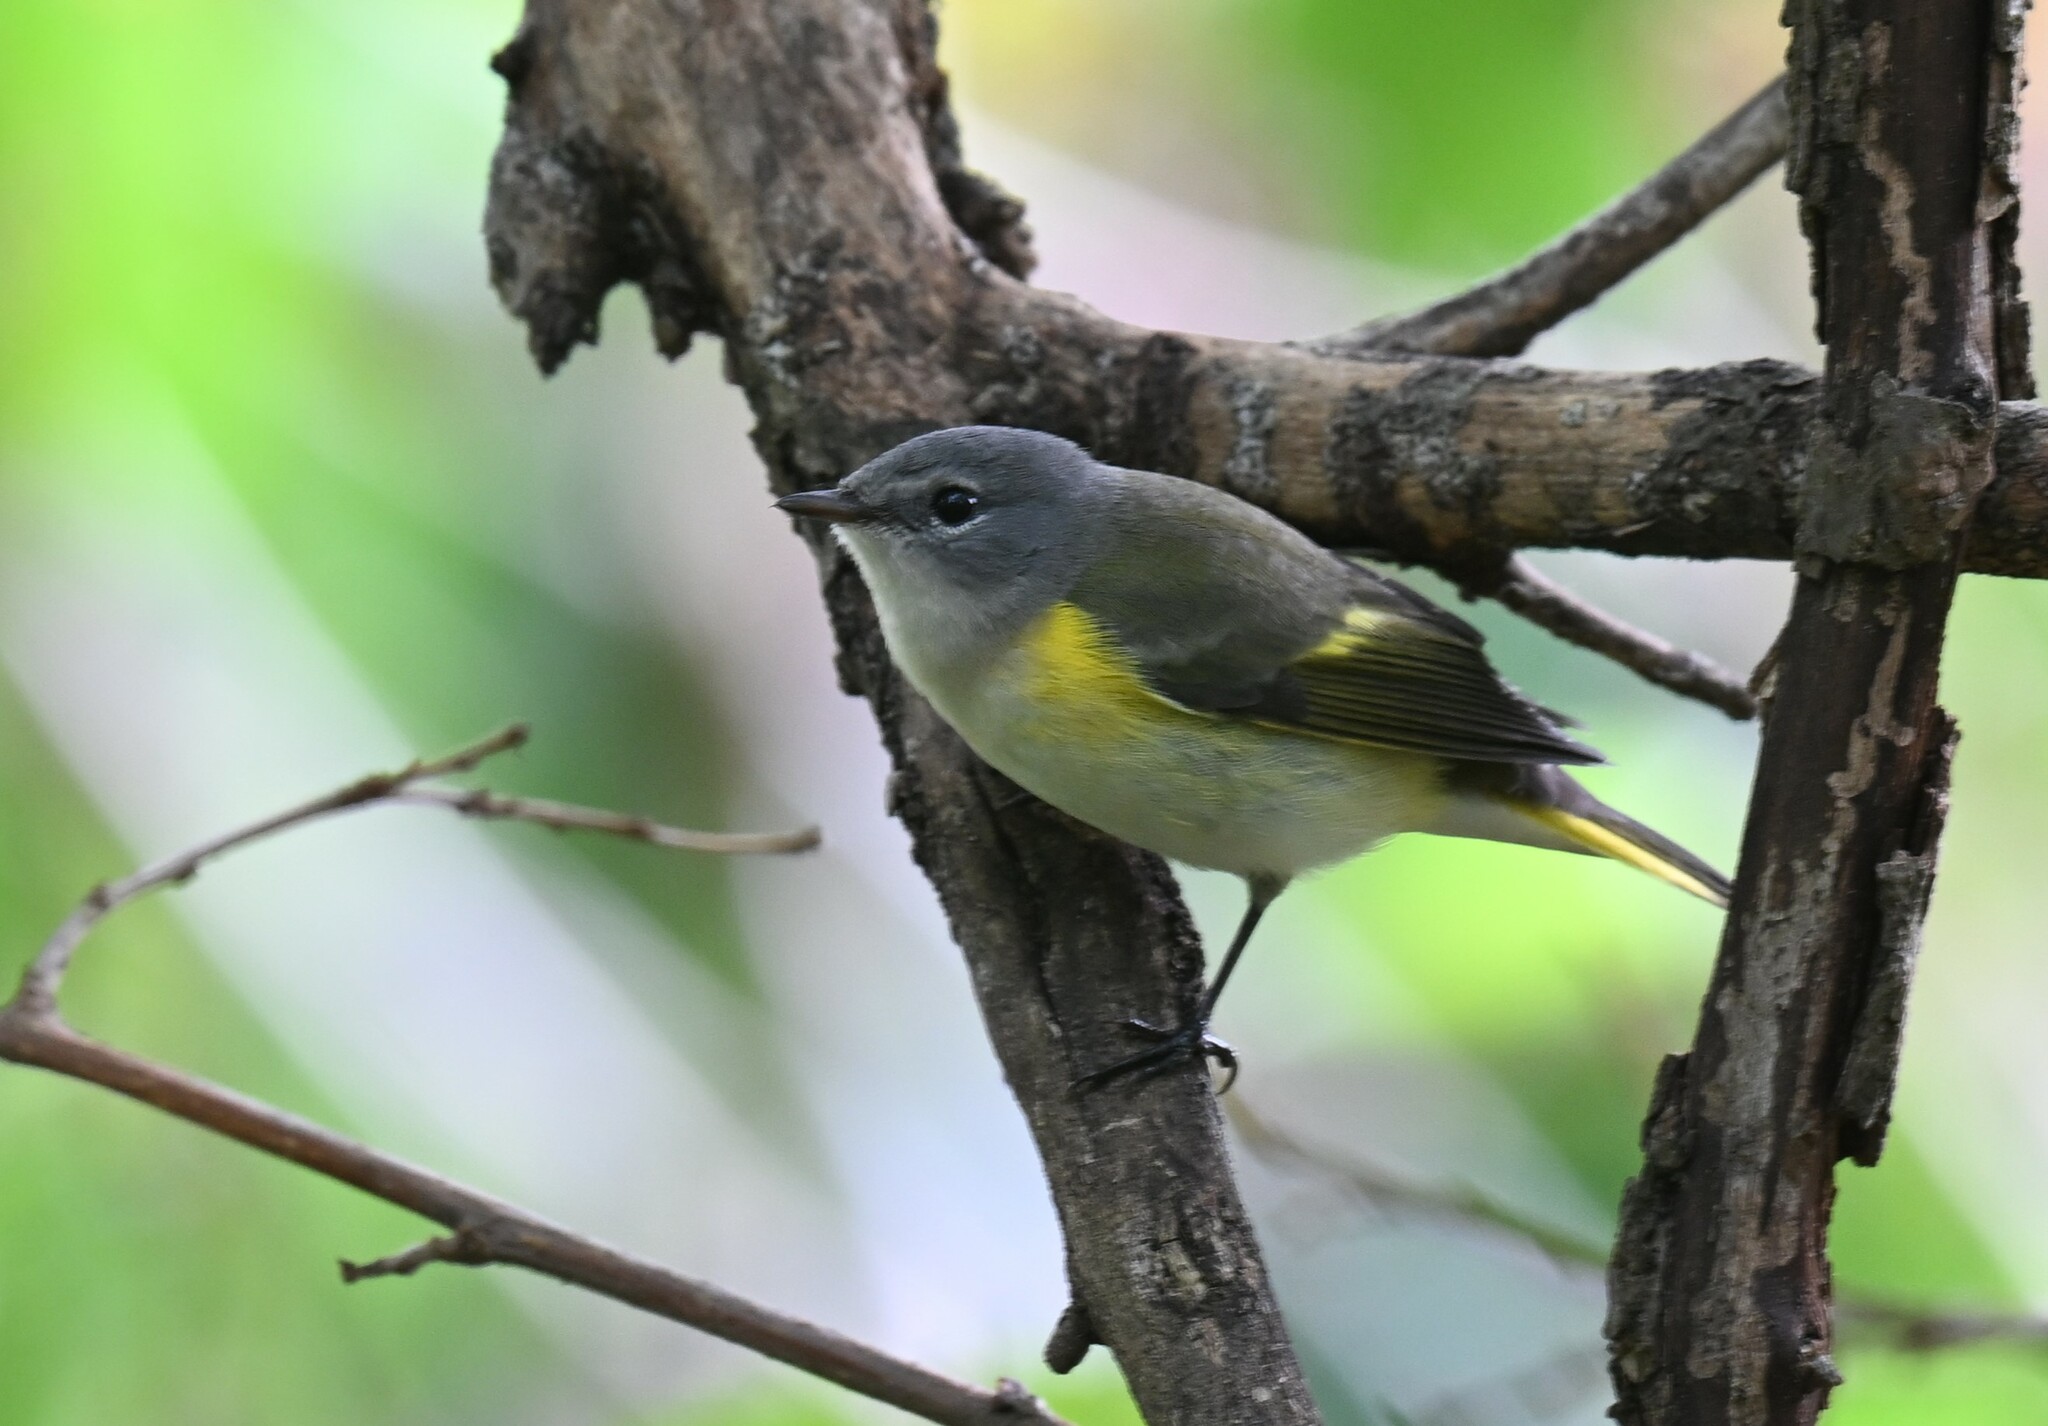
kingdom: Animalia
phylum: Chordata
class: Aves
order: Passeriformes
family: Parulidae
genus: Setophaga
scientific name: Setophaga ruticilla
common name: American redstart
